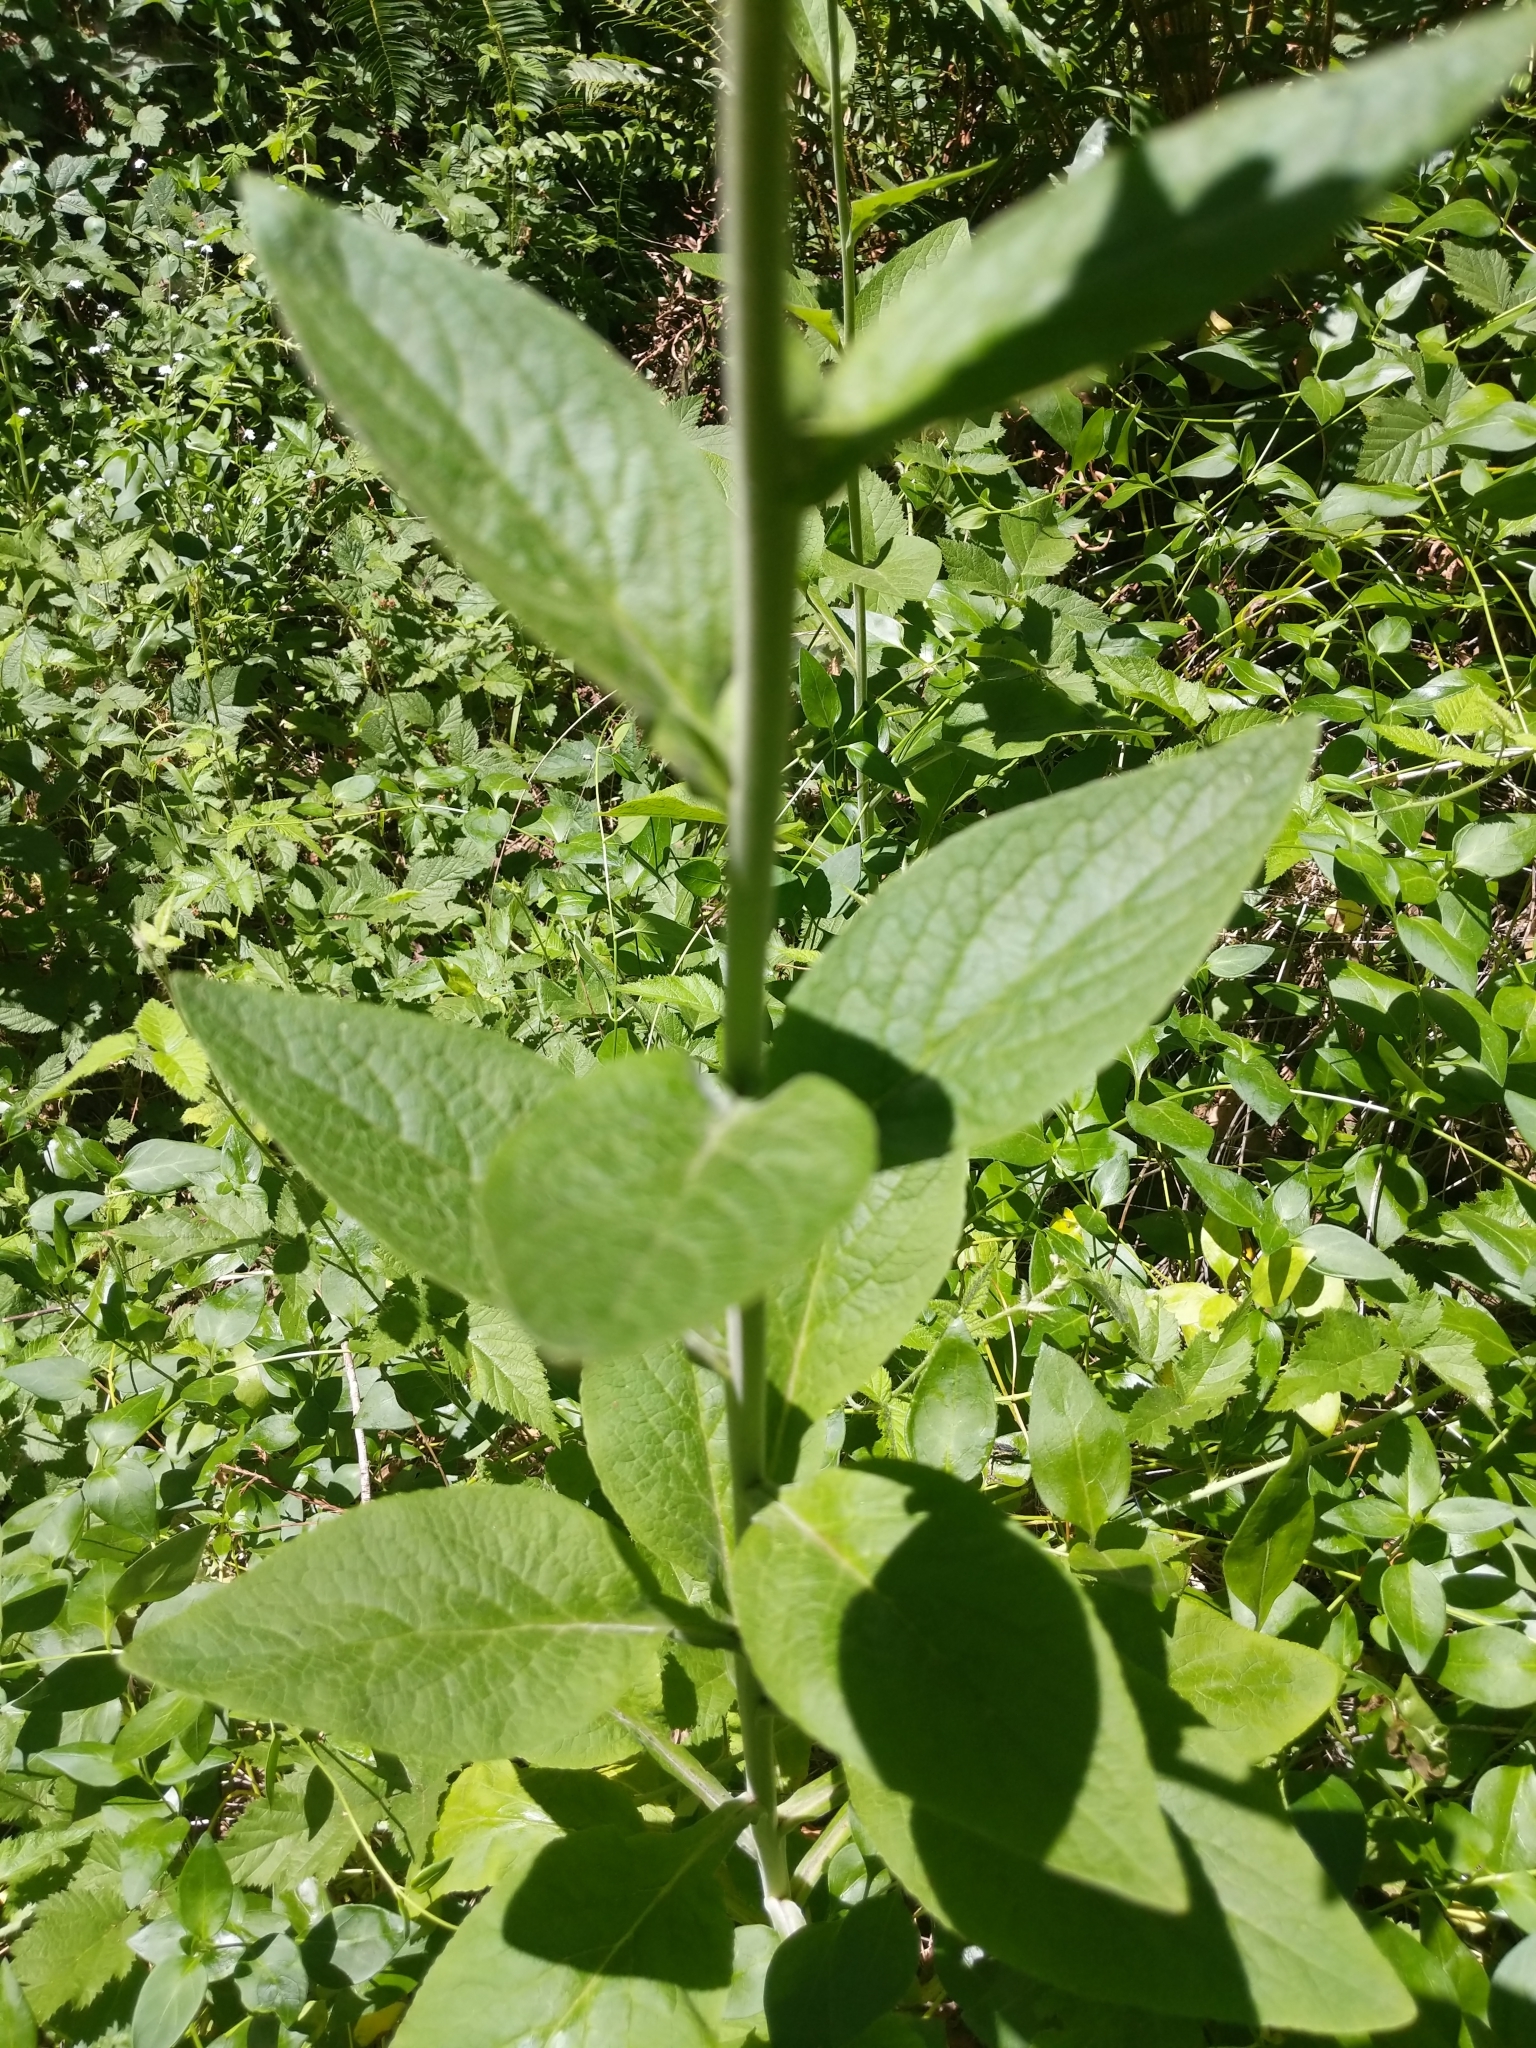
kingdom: Plantae
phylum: Tracheophyta
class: Magnoliopsida
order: Lamiales
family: Plantaginaceae
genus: Digitalis
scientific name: Digitalis purpurea
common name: Foxglove
